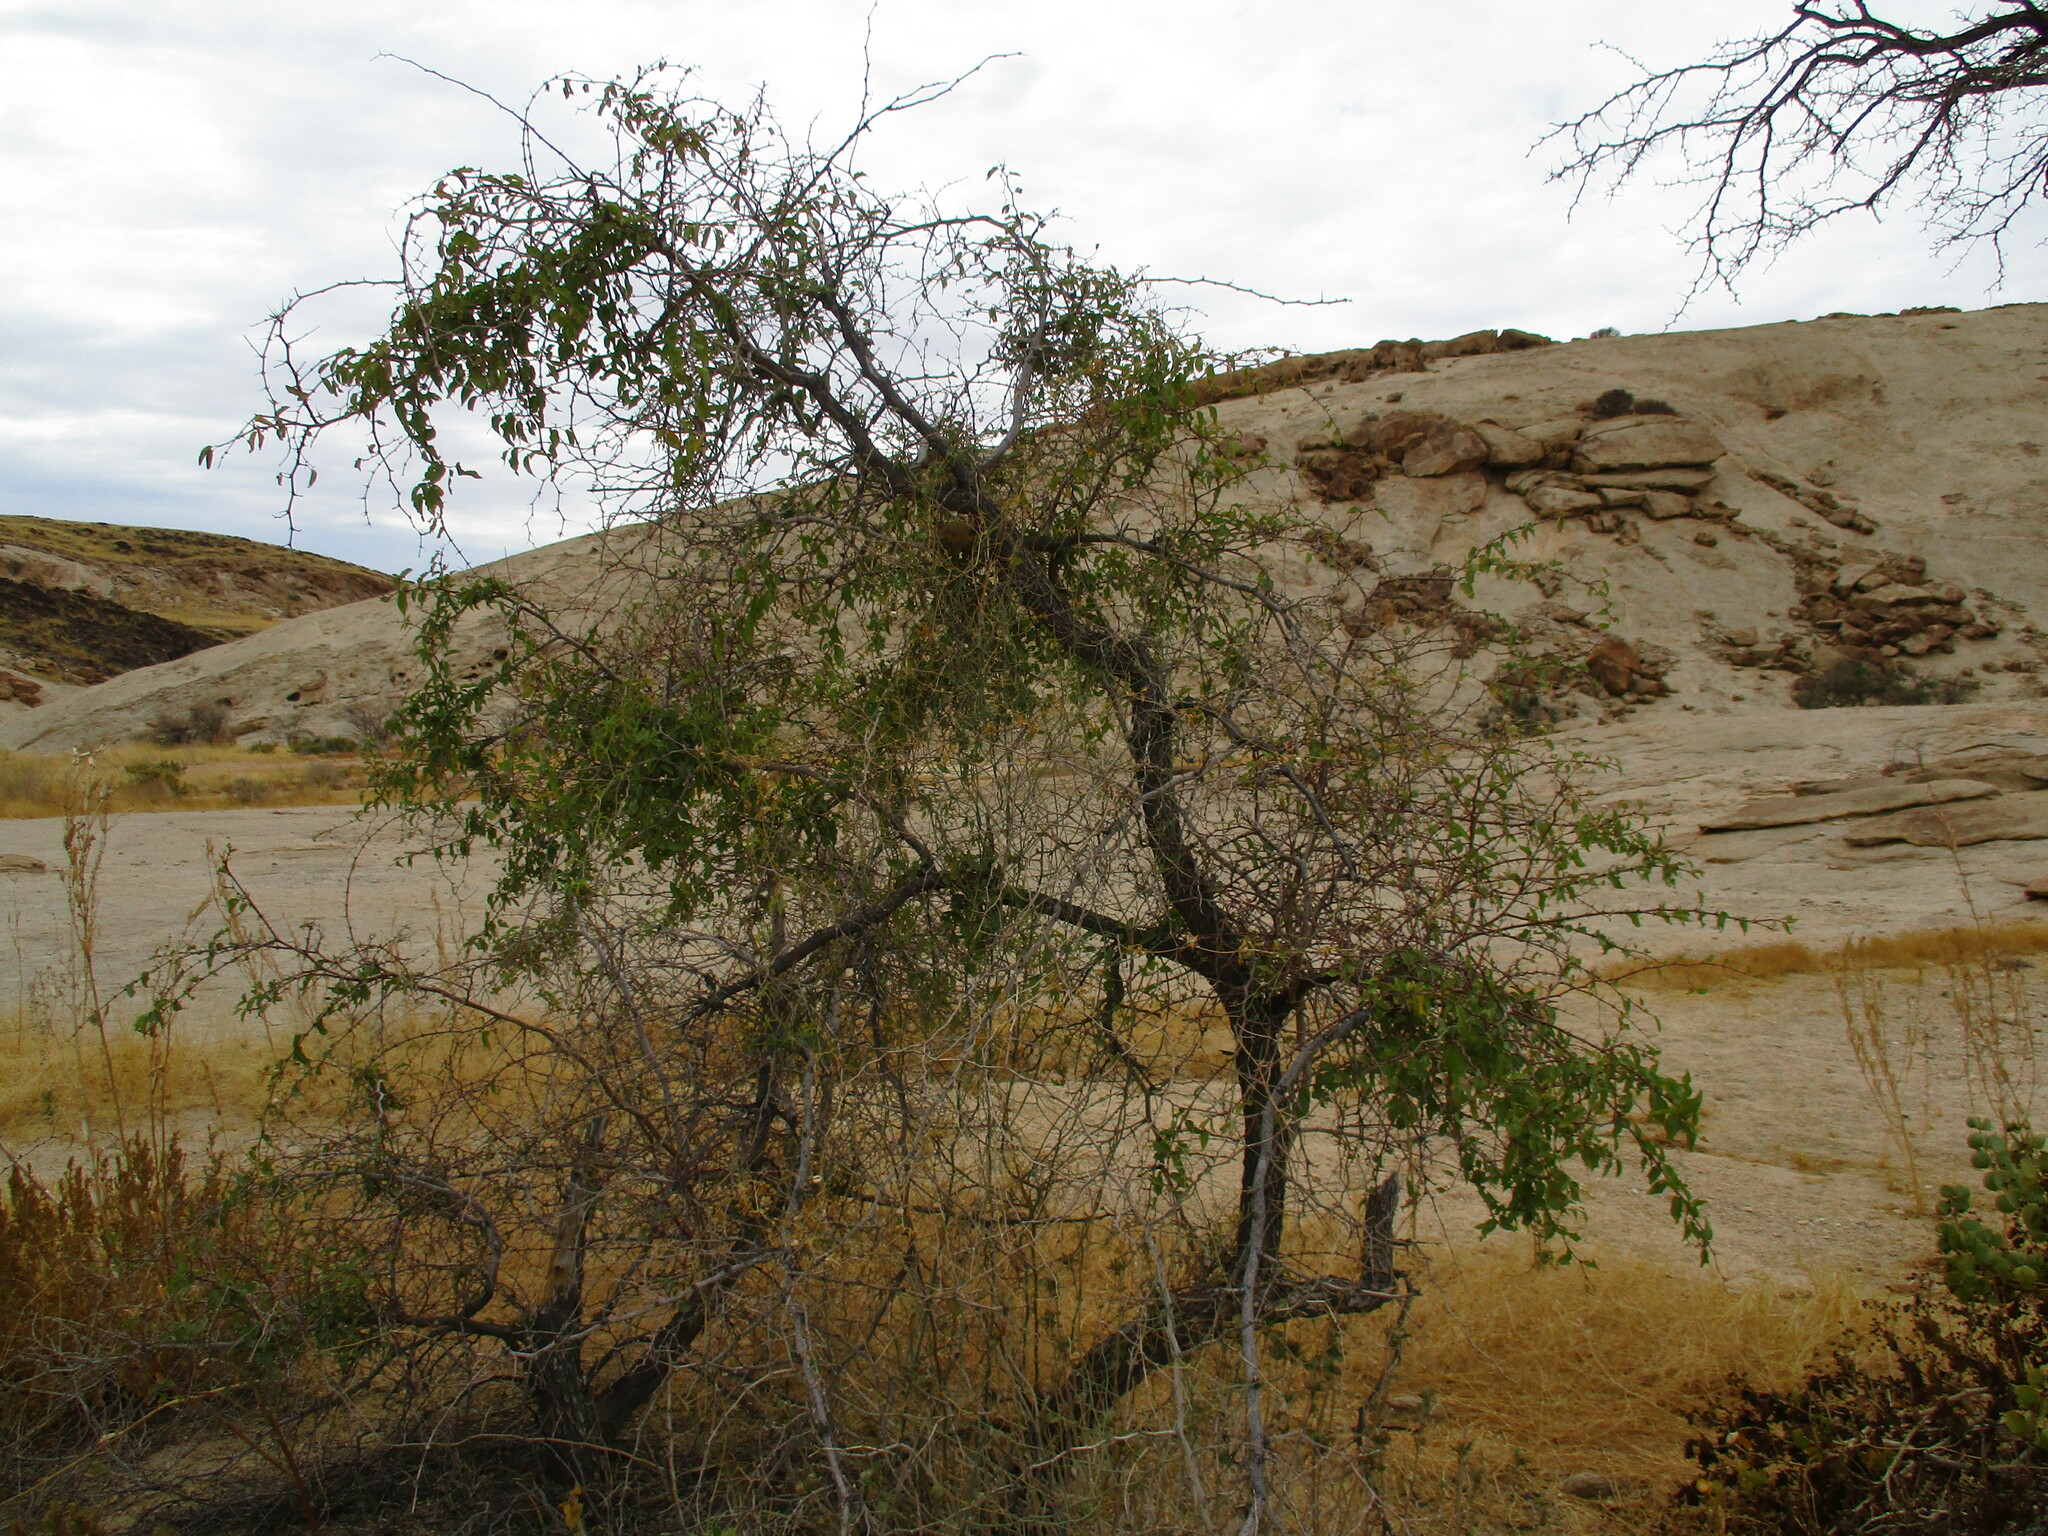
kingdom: Plantae
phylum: Tracheophyta
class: Magnoliopsida
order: Rosales
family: Rhamnaceae
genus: Ziziphus
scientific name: Ziziphus mucronata
